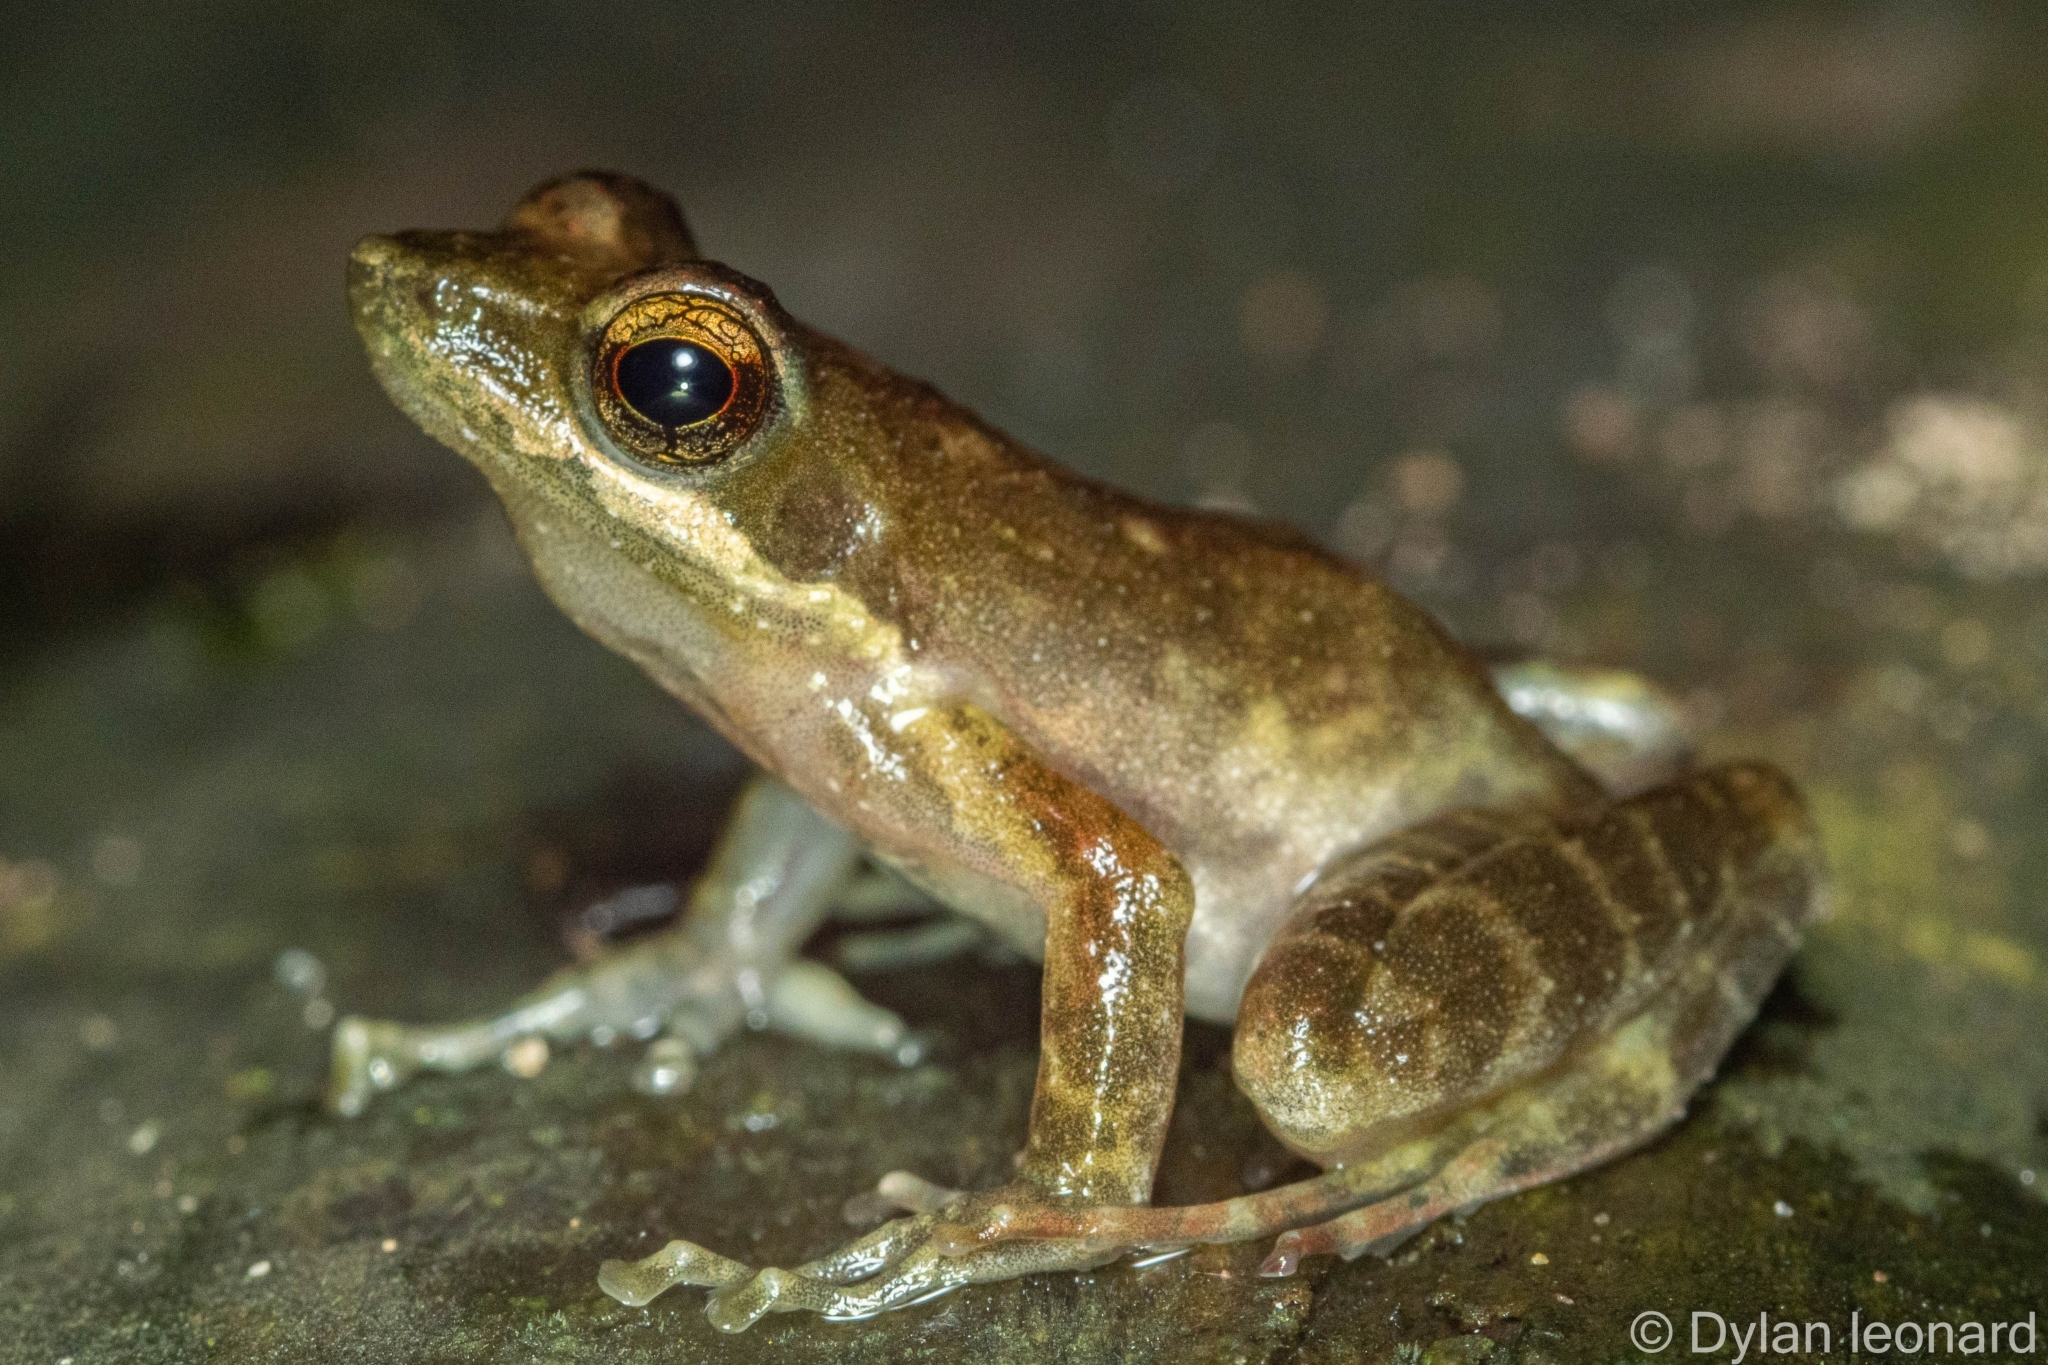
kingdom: Animalia
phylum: Chordata
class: Amphibia
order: Anura
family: Pyxicephalidae
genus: Natalobatrachus
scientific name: Natalobatrachus bonebergi
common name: Natal diving frog
